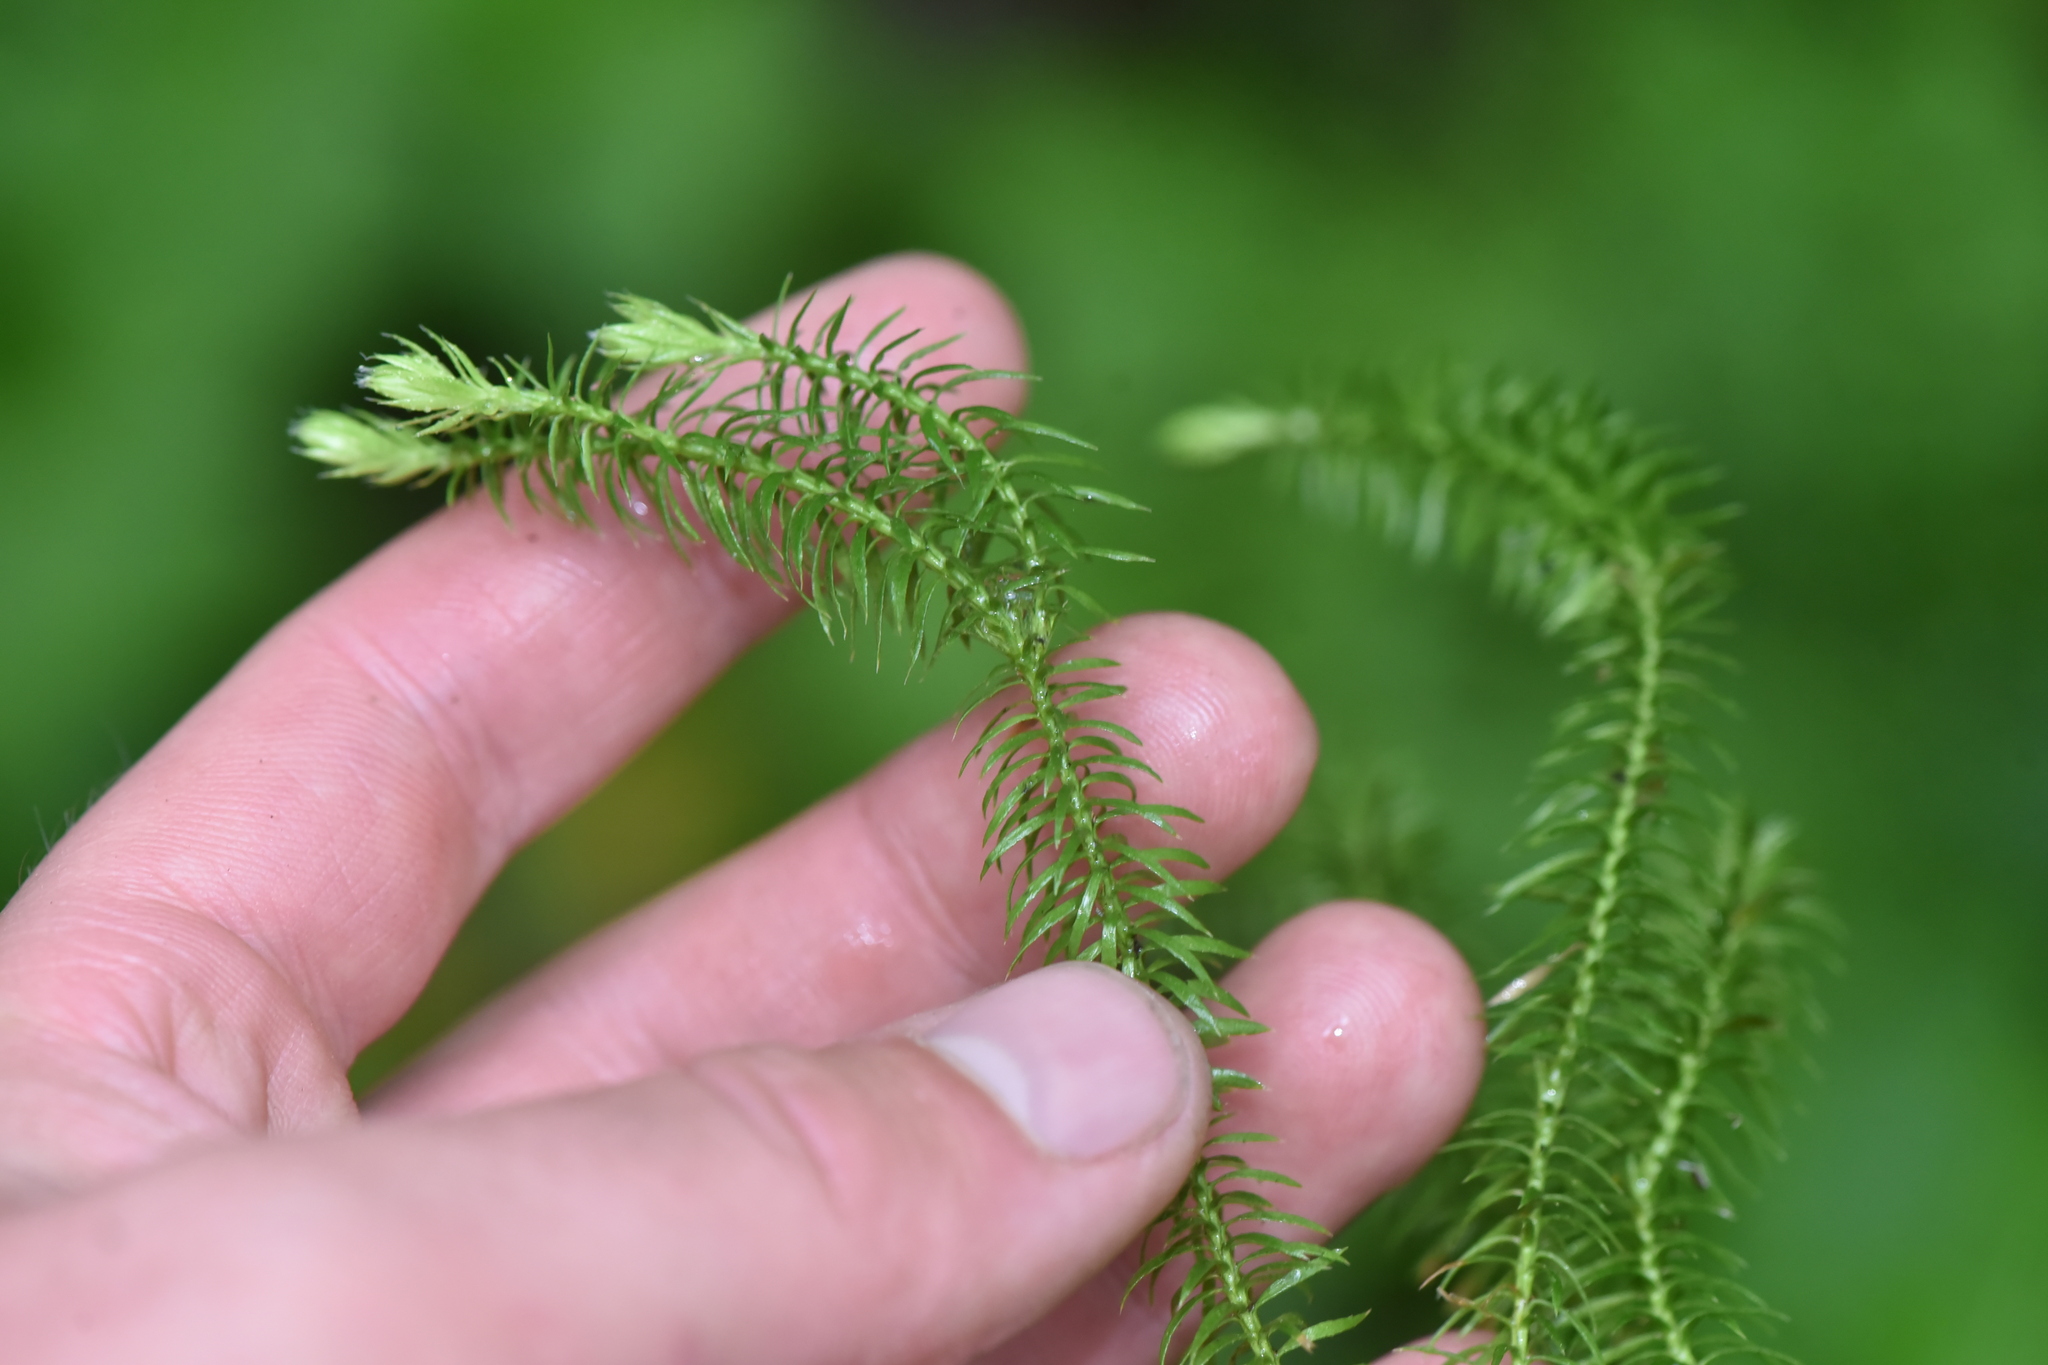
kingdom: Plantae
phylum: Tracheophyta
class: Lycopodiopsida
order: Lycopodiales
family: Lycopodiaceae
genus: Spinulum
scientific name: Spinulum annotinum
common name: Interrupted club-moss
